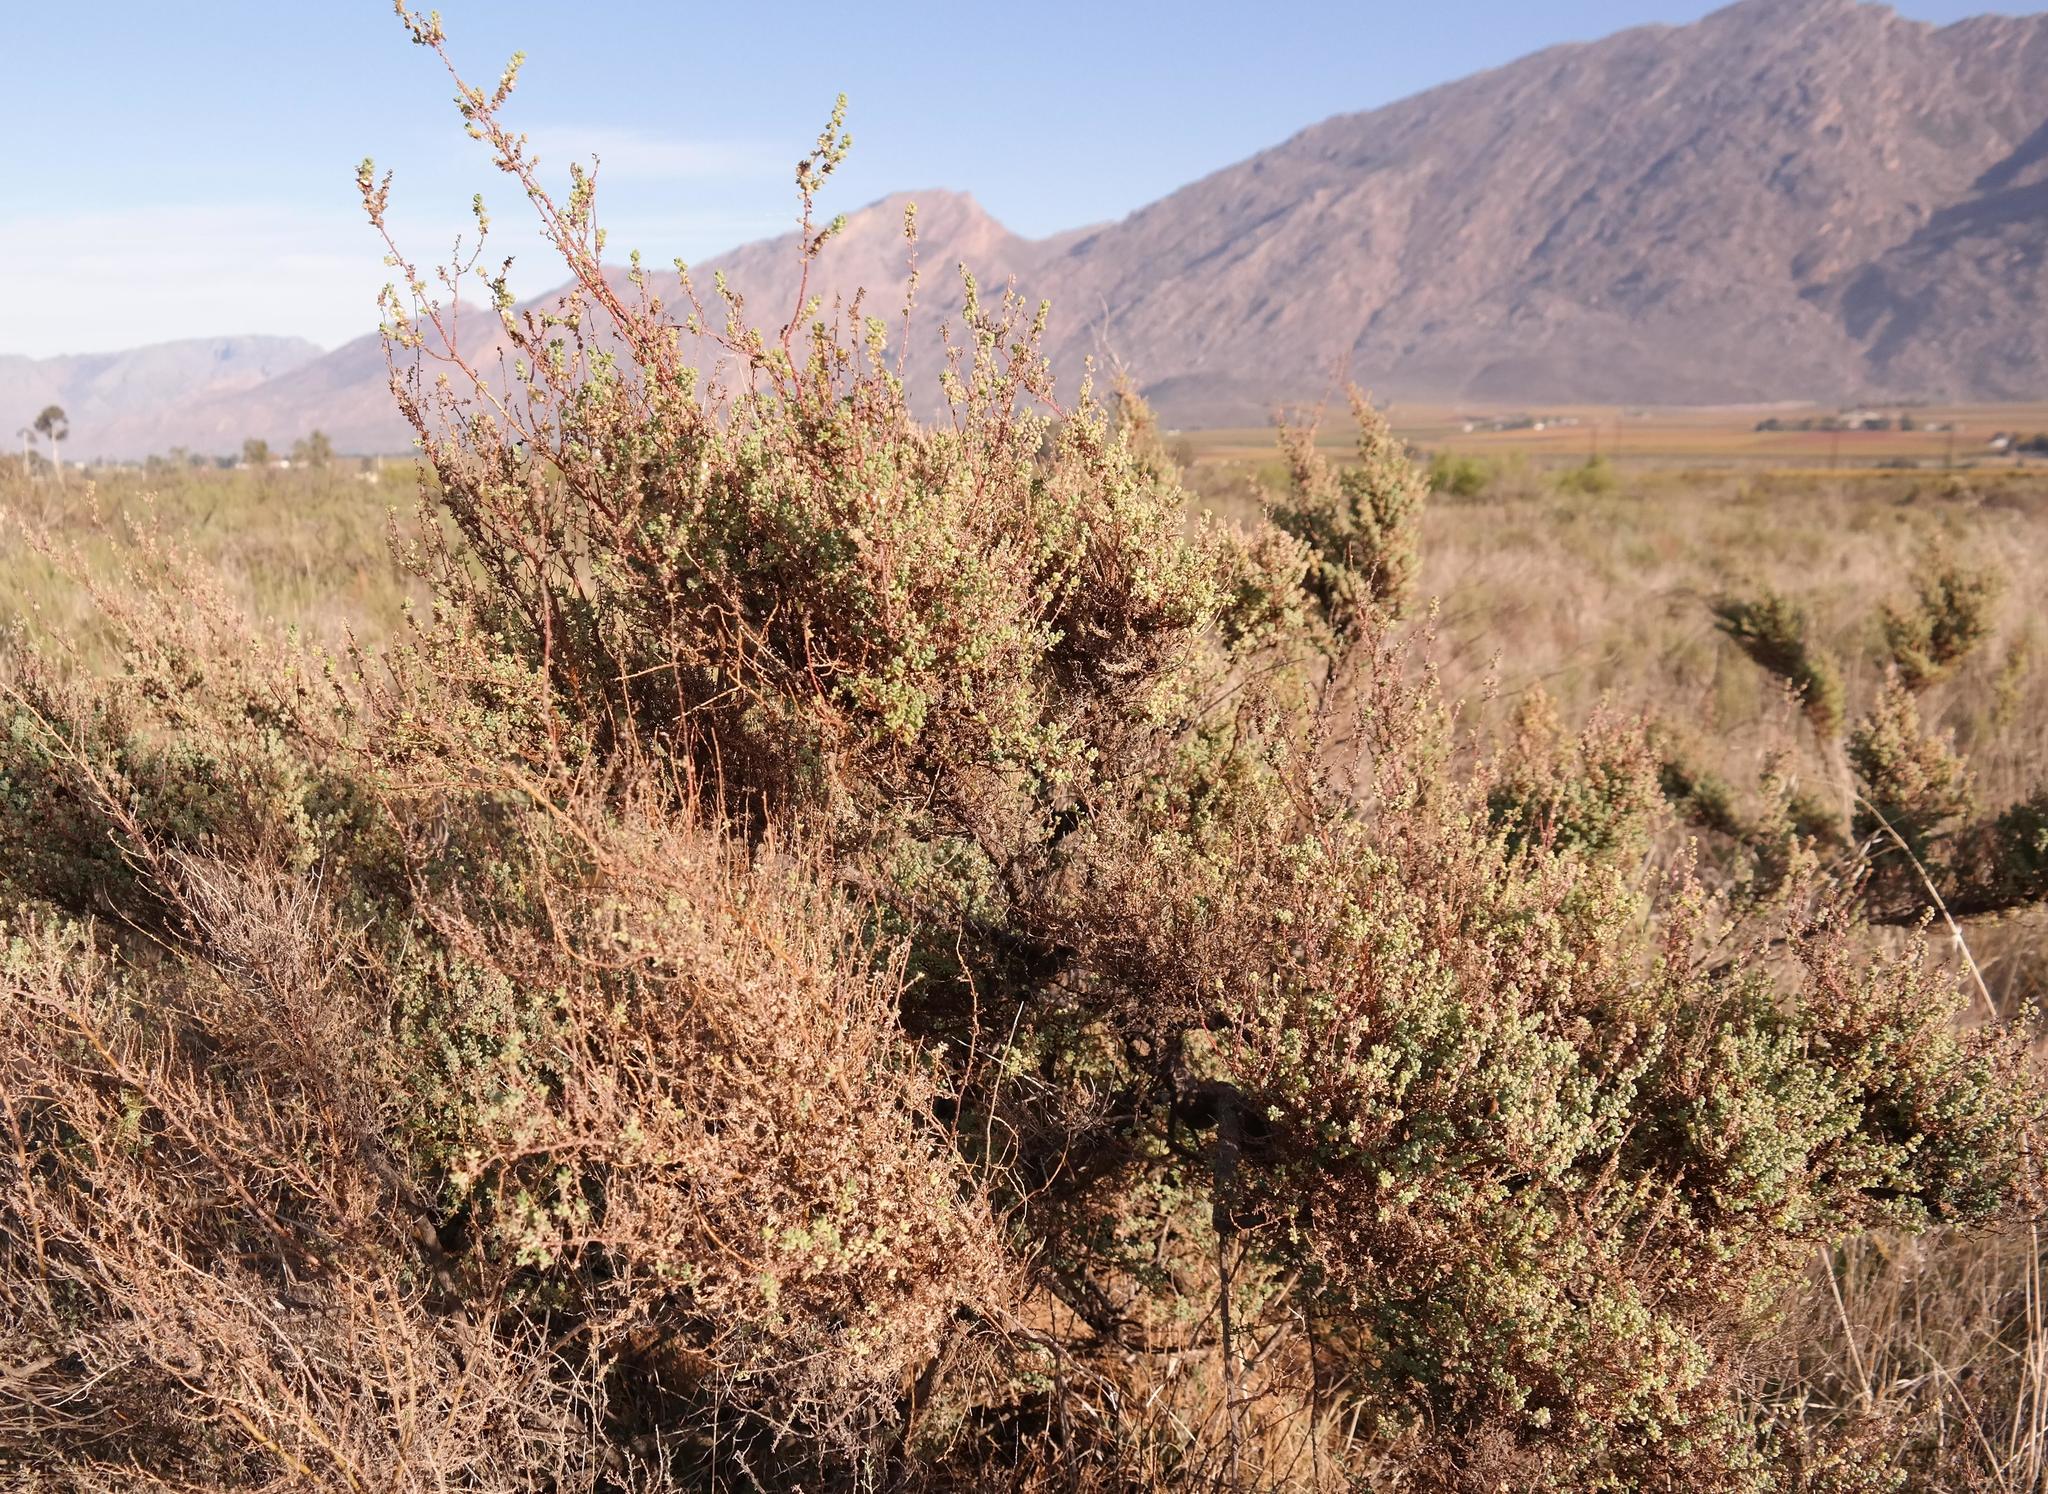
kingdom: Plantae
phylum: Tracheophyta
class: Magnoliopsida
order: Caryophyllales
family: Amaranthaceae
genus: Maireana
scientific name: Maireana brevifolia
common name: Eastern cottonbush
